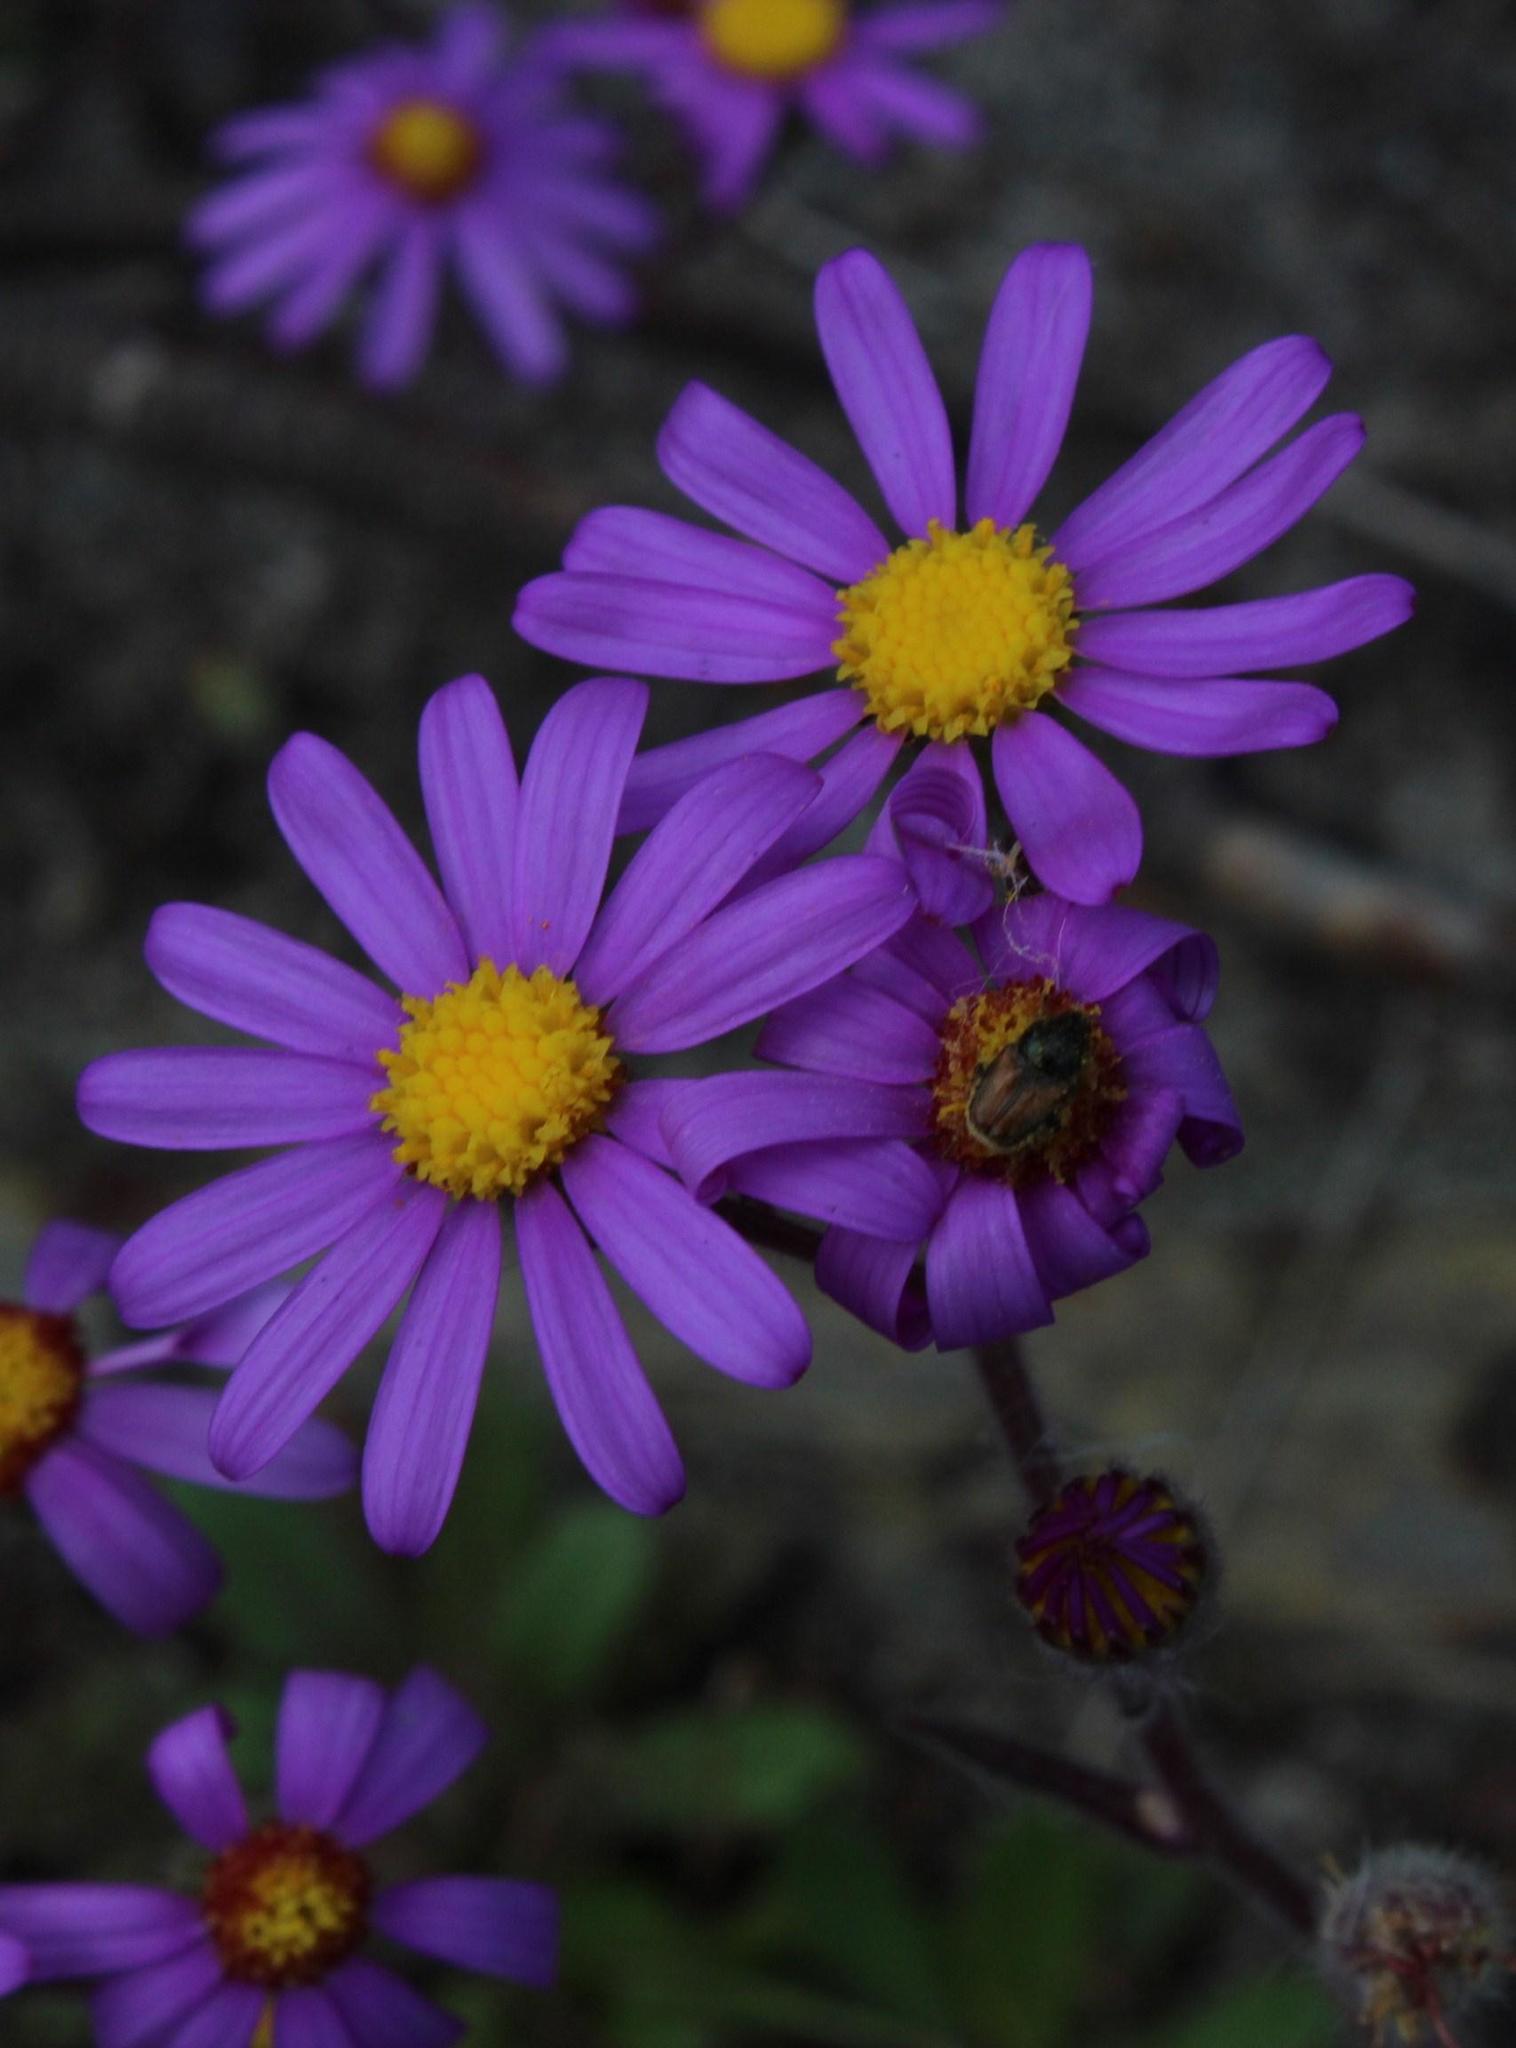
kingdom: Plantae
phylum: Tracheophyta
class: Magnoliopsida
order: Asterales
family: Asteraceae
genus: Senecio
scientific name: Senecio arenarius
